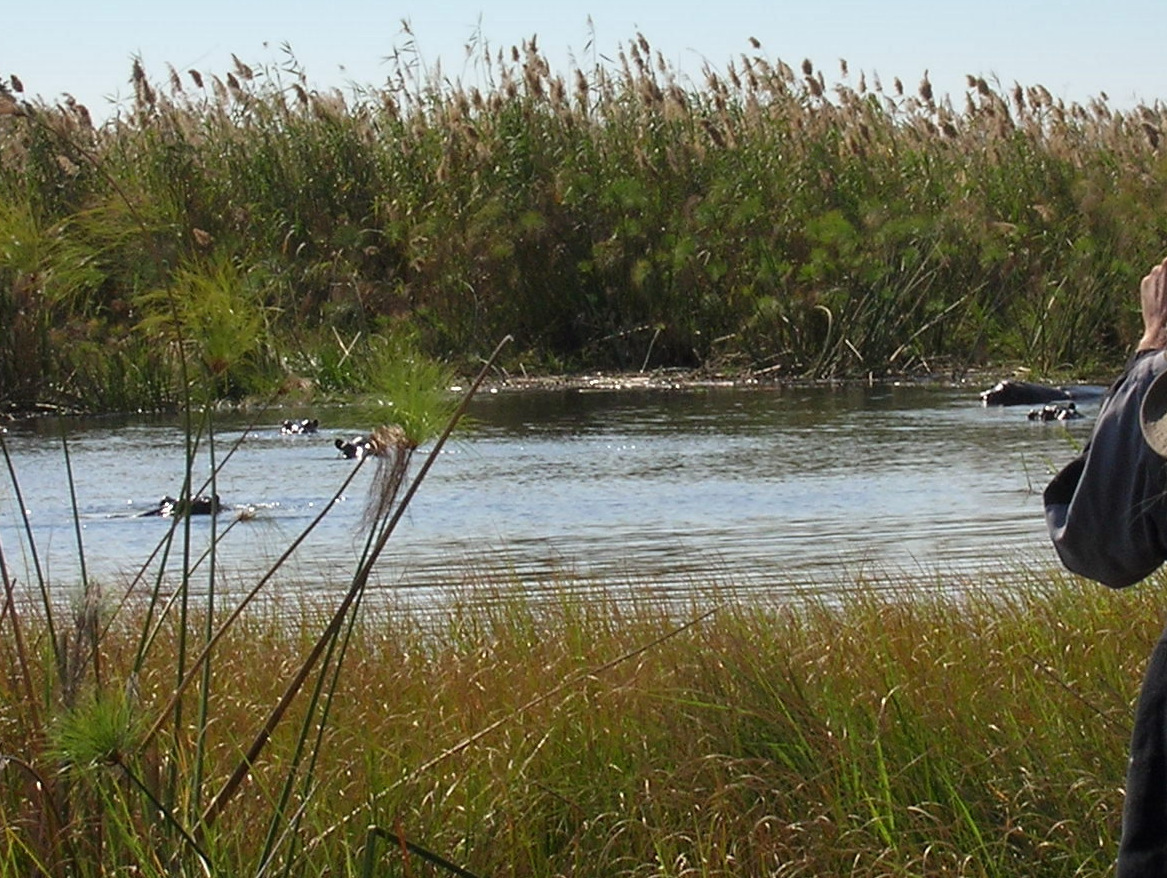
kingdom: Animalia
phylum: Chordata
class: Mammalia
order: Artiodactyla
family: Hippopotamidae
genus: Hippopotamus
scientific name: Hippopotamus amphibius
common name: Common hippopotamus
